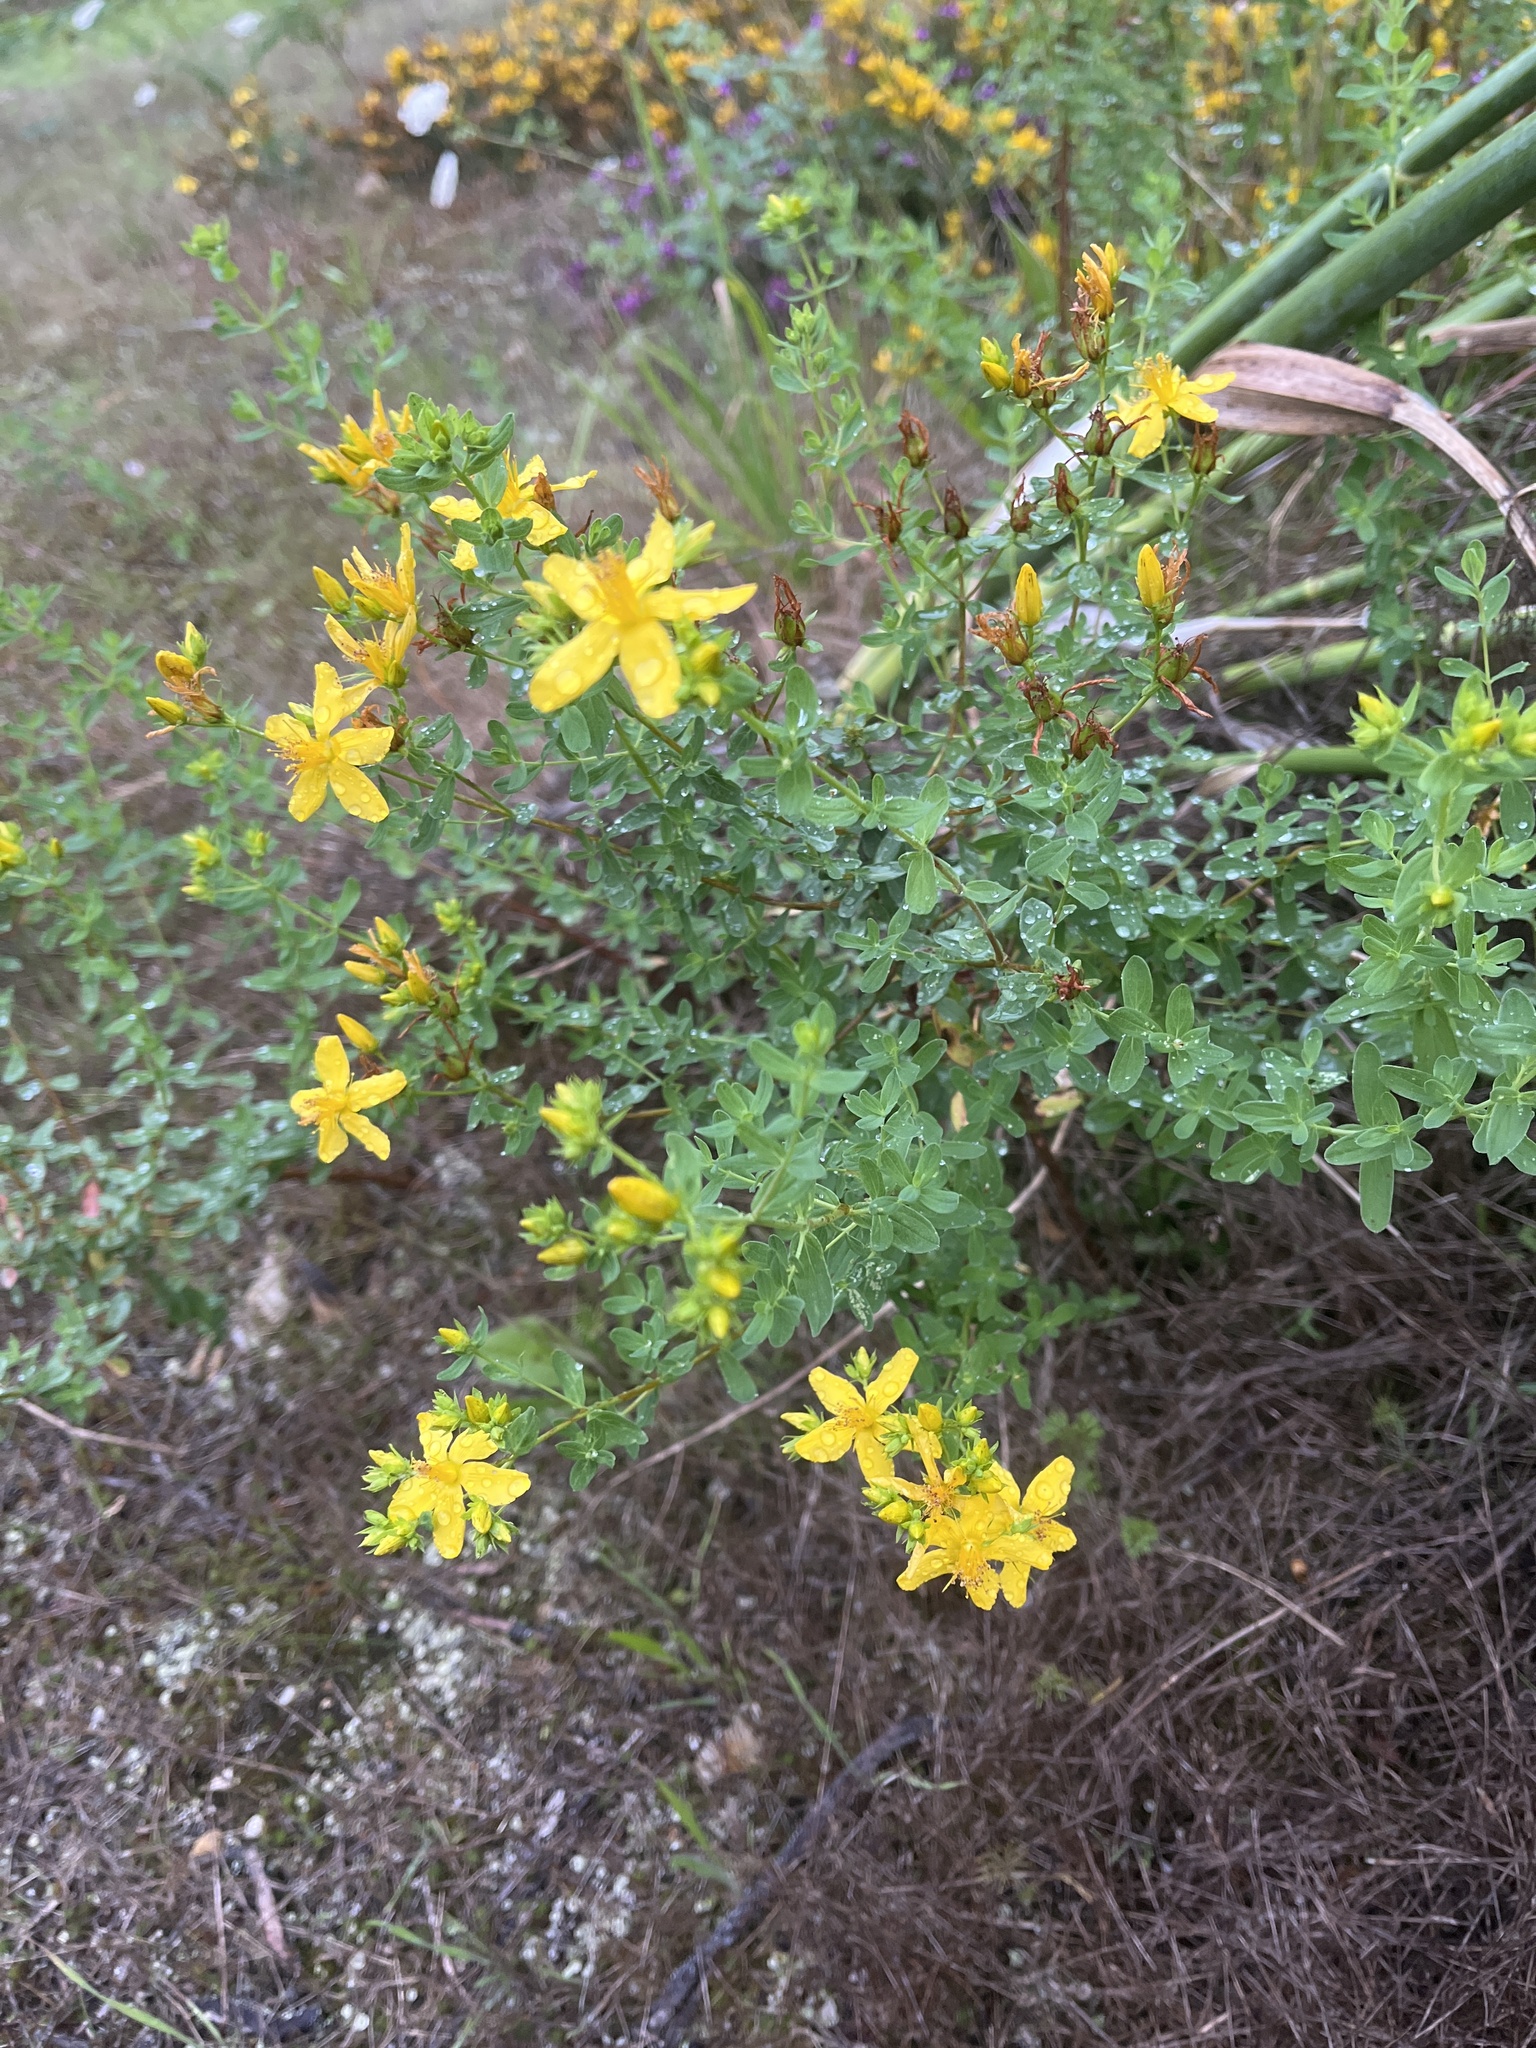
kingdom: Plantae
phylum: Tracheophyta
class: Magnoliopsida
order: Malpighiales
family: Hypericaceae
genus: Hypericum
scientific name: Hypericum perforatum
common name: Common st. johnswort
